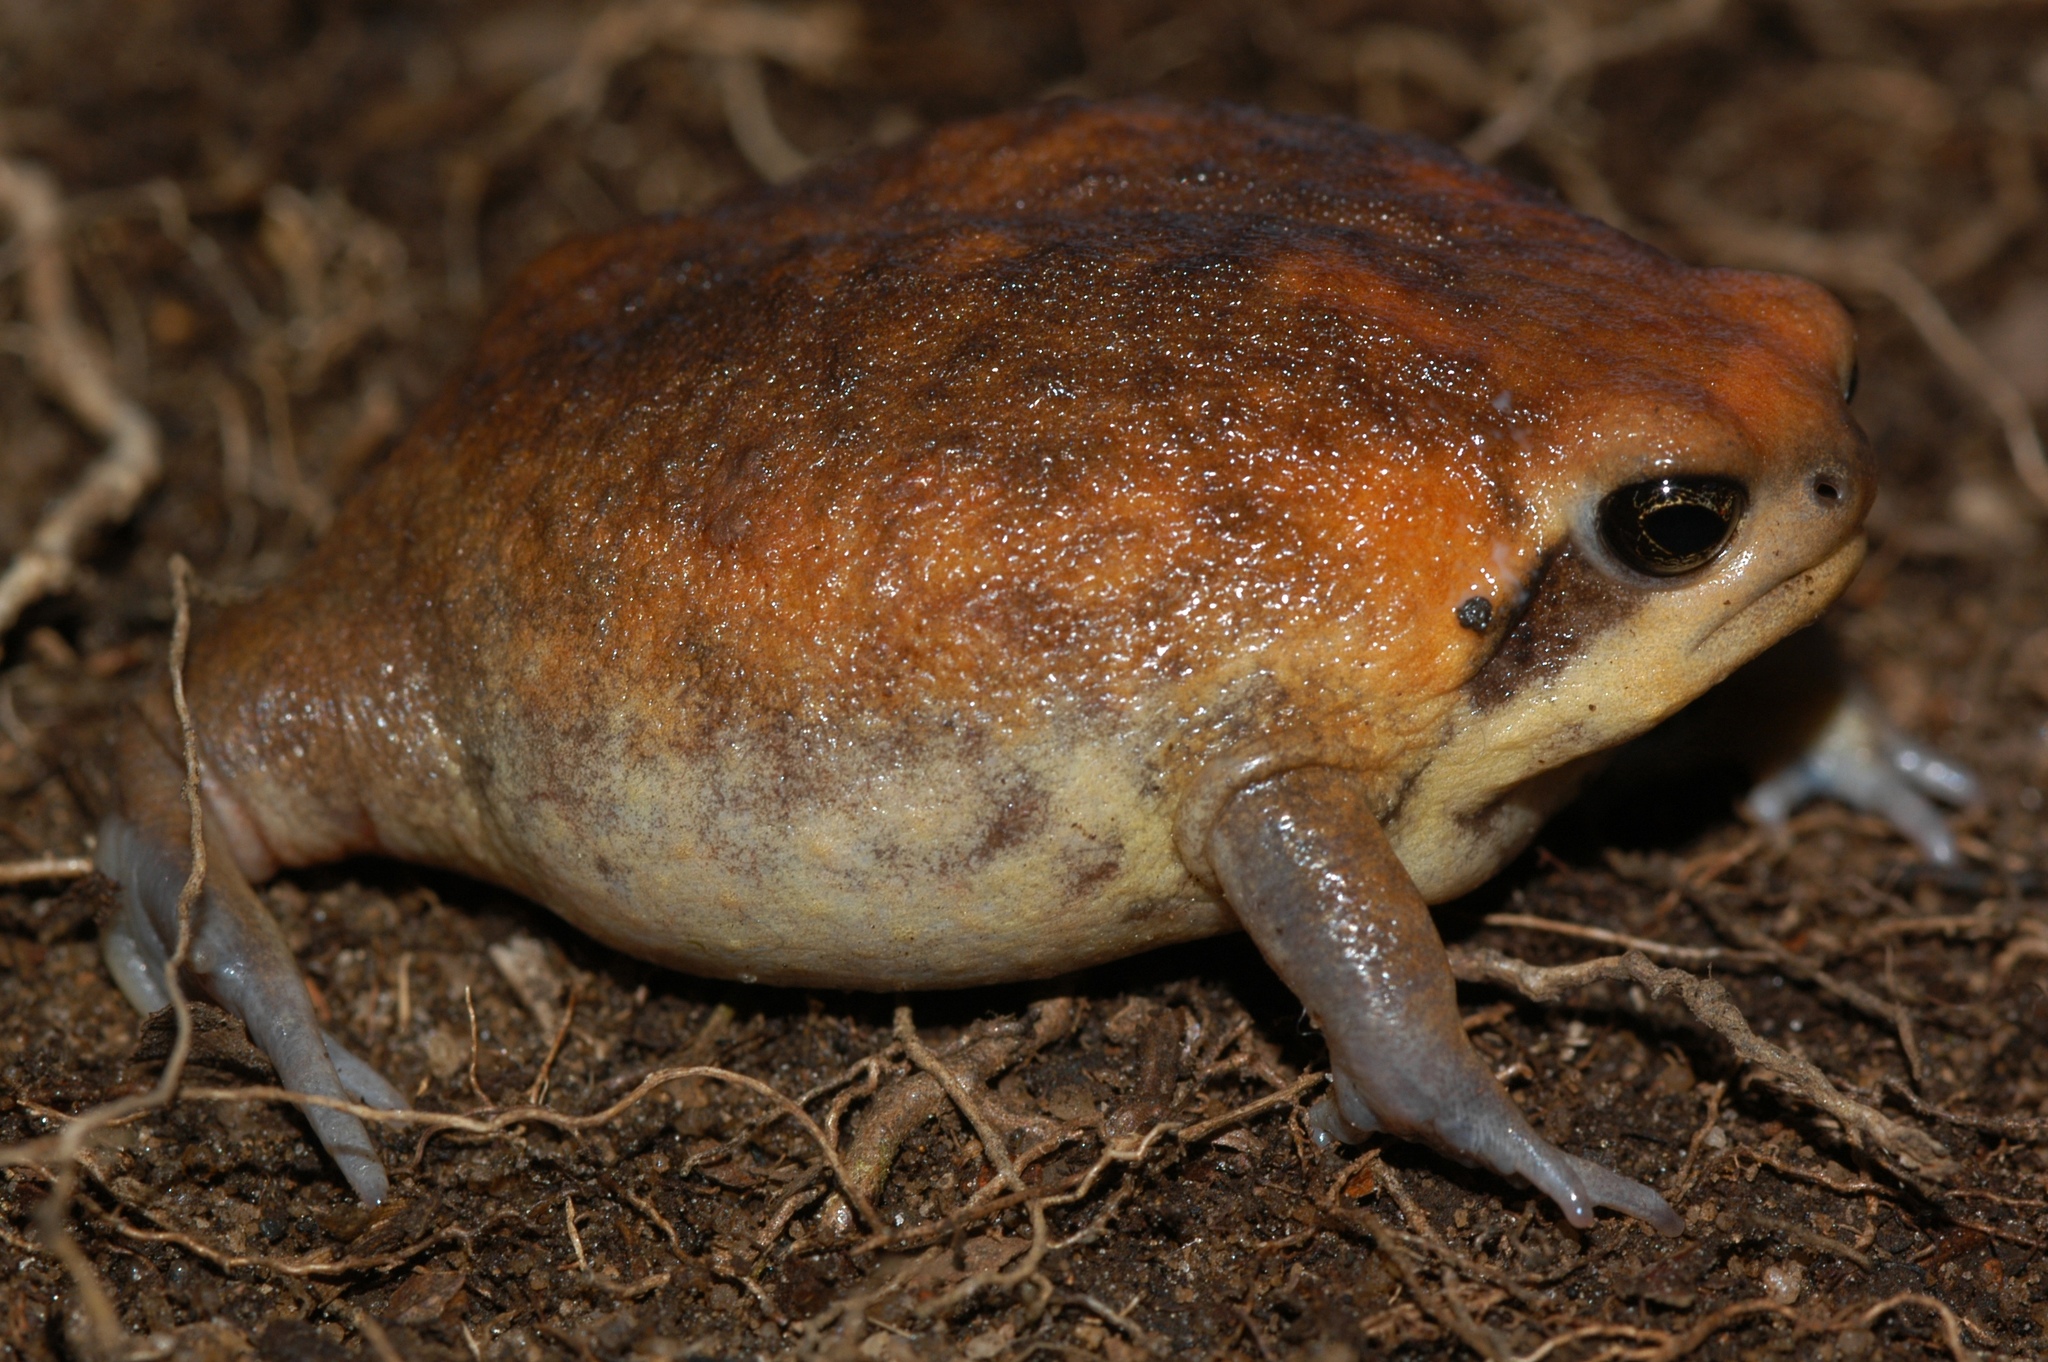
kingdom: Animalia
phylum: Chordata
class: Amphibia
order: Anura
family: Brevicipitidae
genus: Breviceps
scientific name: Breviceps adspersus
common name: Common rain frog
